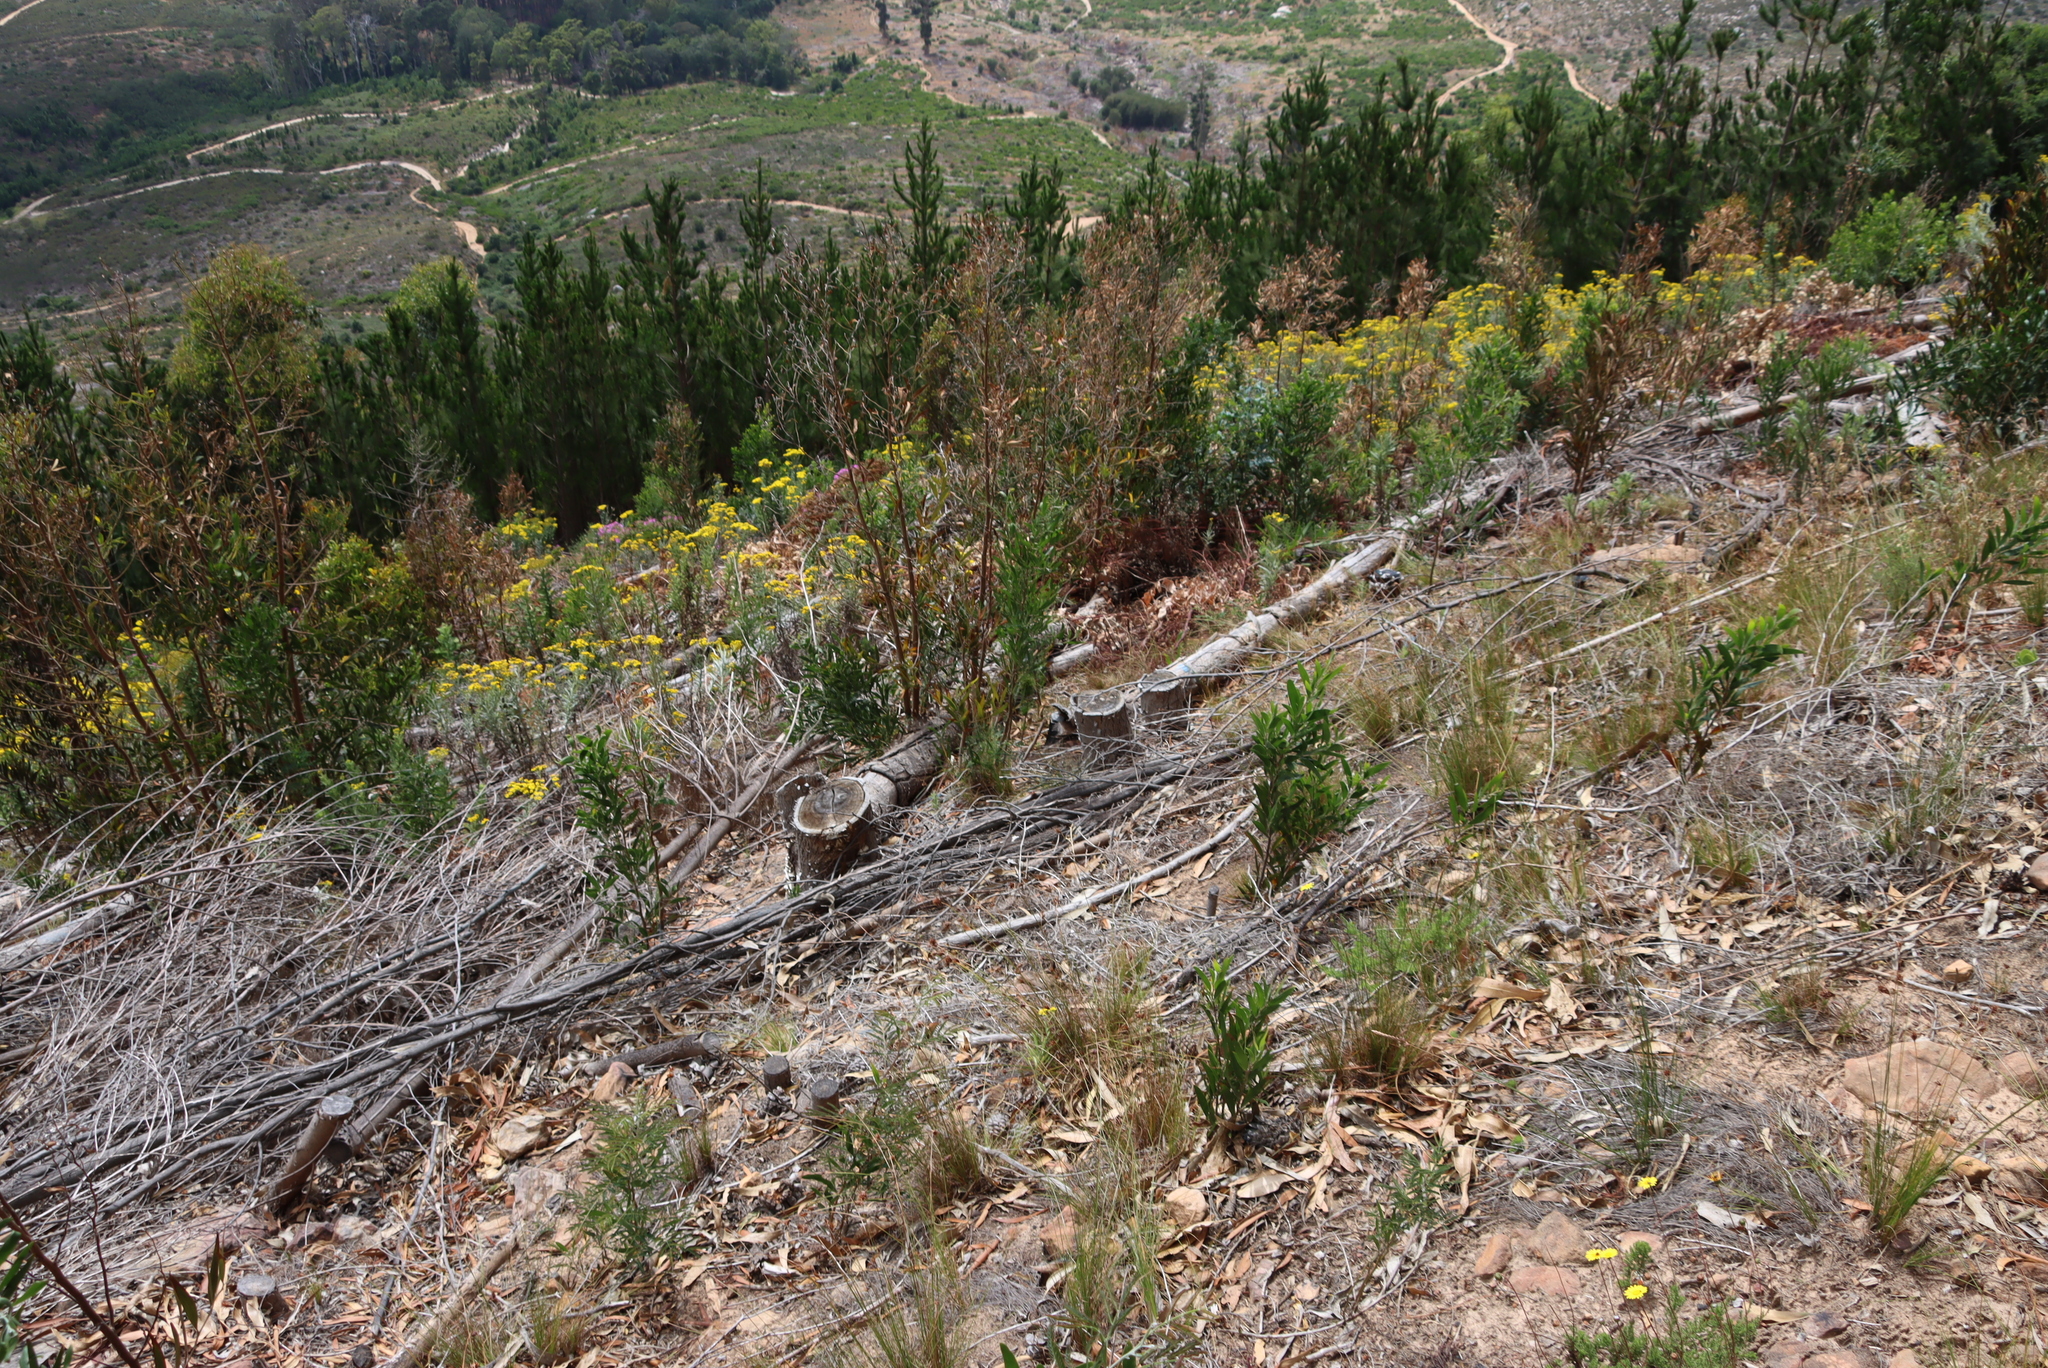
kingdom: Plantae
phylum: Tracheophyta
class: Pinopsida
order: Pinales
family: Pinaceae
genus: Pinus
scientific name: Pinus radiata
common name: Monterey pine
